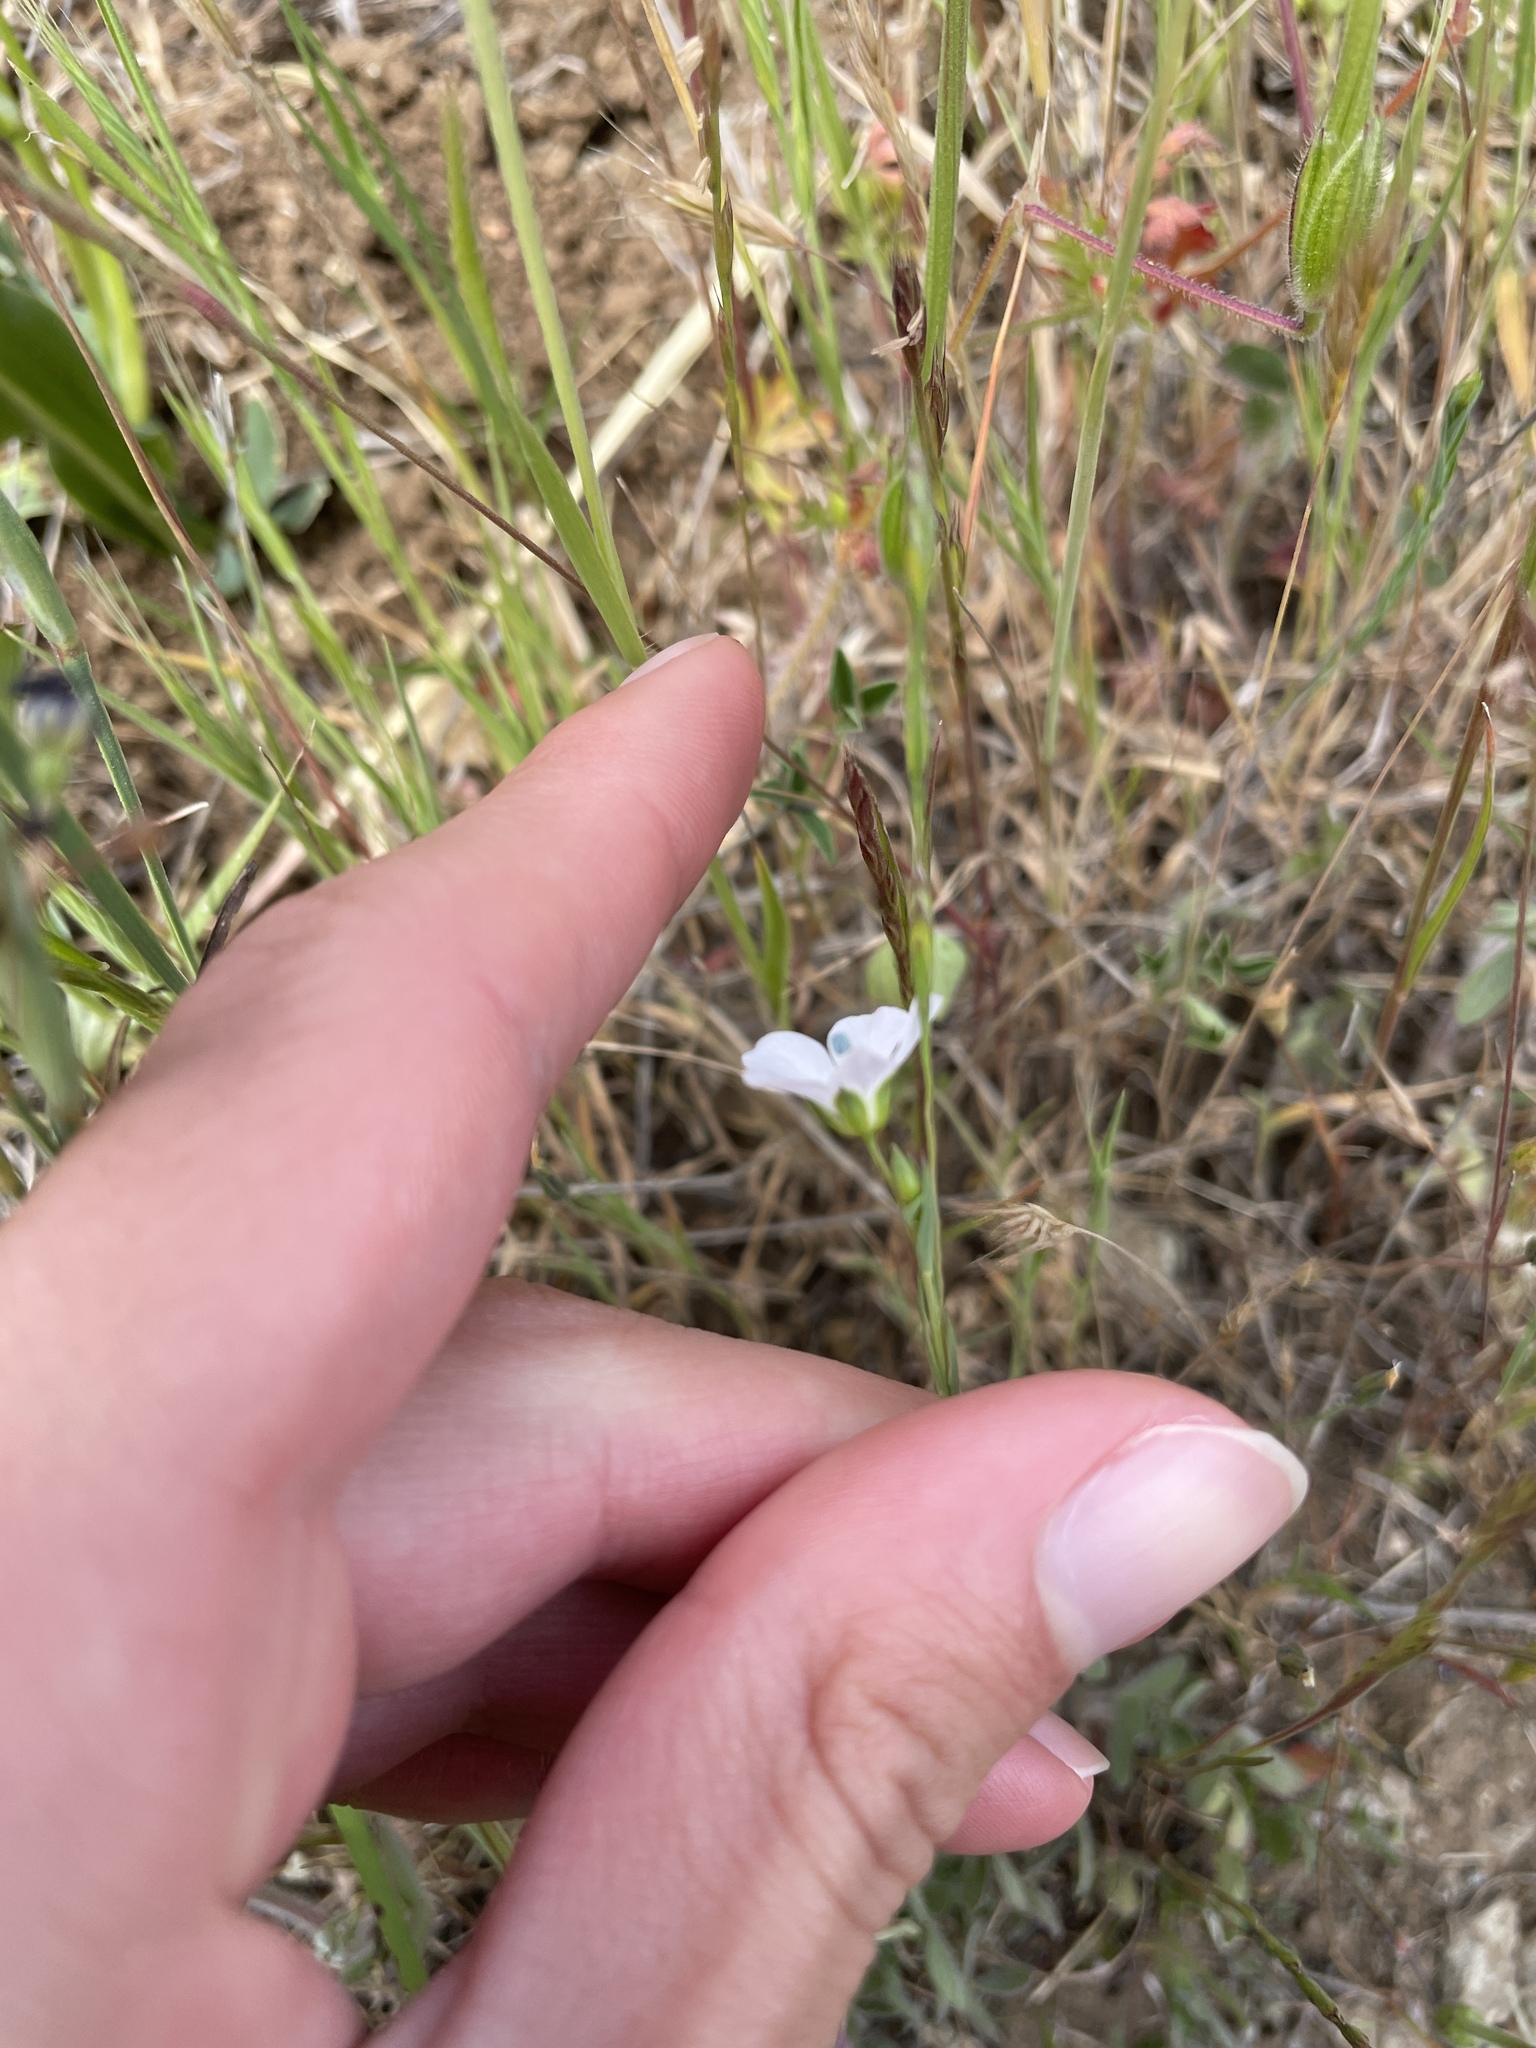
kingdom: Plantae
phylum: Tracheophyta
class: Magnoliopsida
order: Malpighiales
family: Linaceae
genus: Linum
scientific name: Linum bienne
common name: Pale flax
